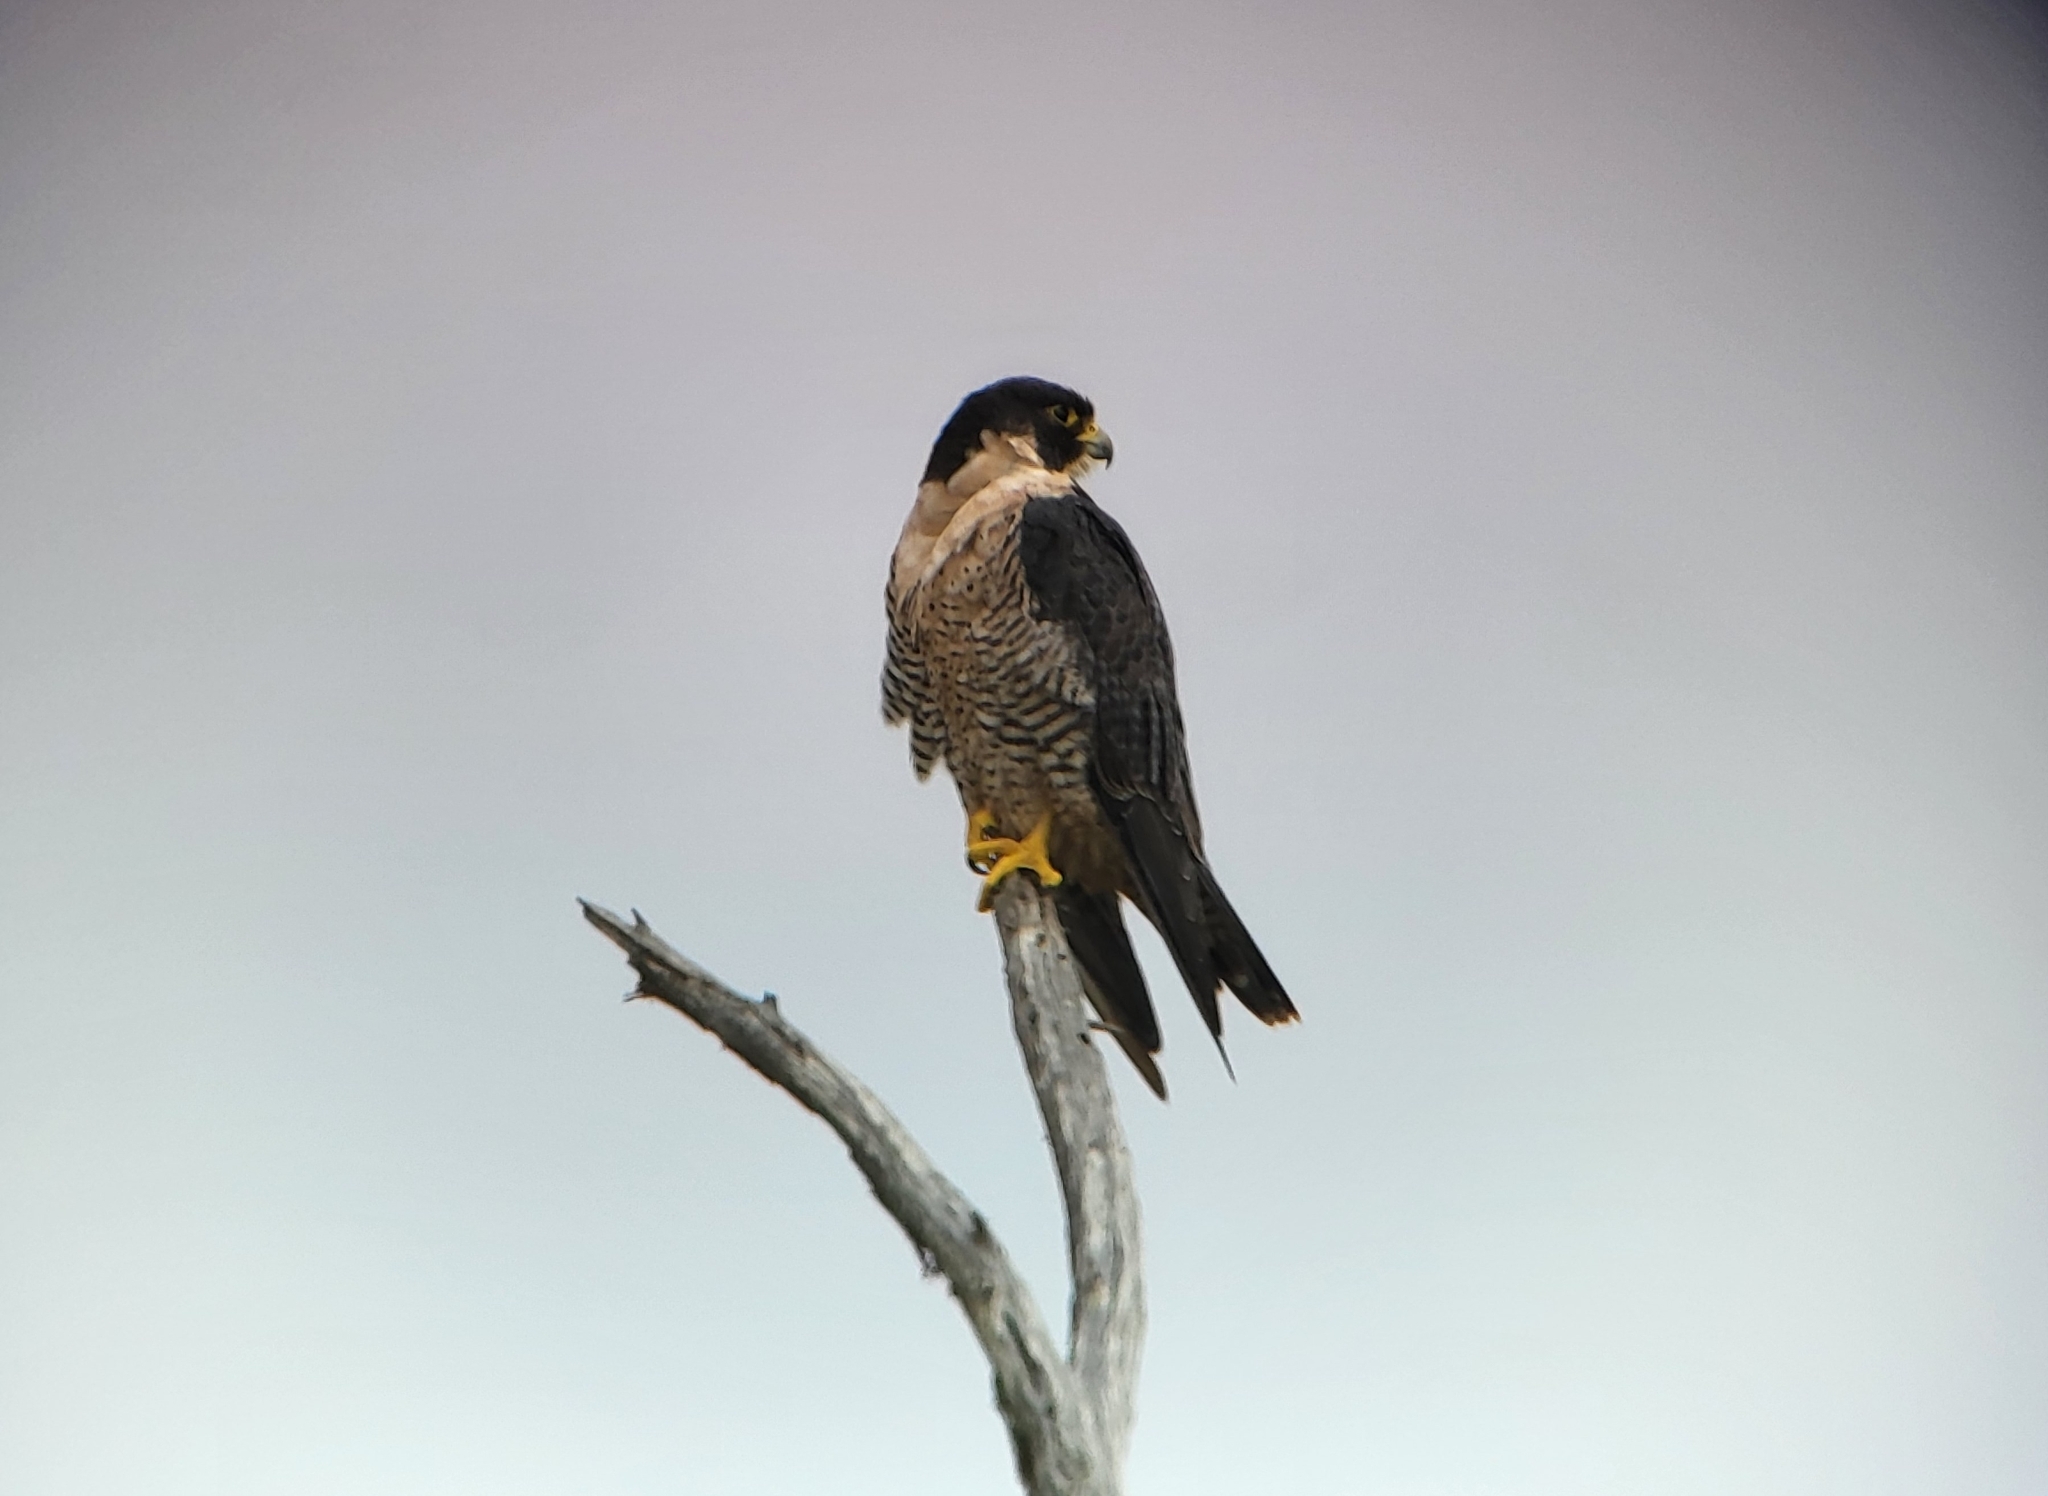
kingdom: Animalia
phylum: Chordata
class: Aves
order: Falconiformes
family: Falconidae
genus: Falco
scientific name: Falco peregrinus
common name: Peregrine falcon
